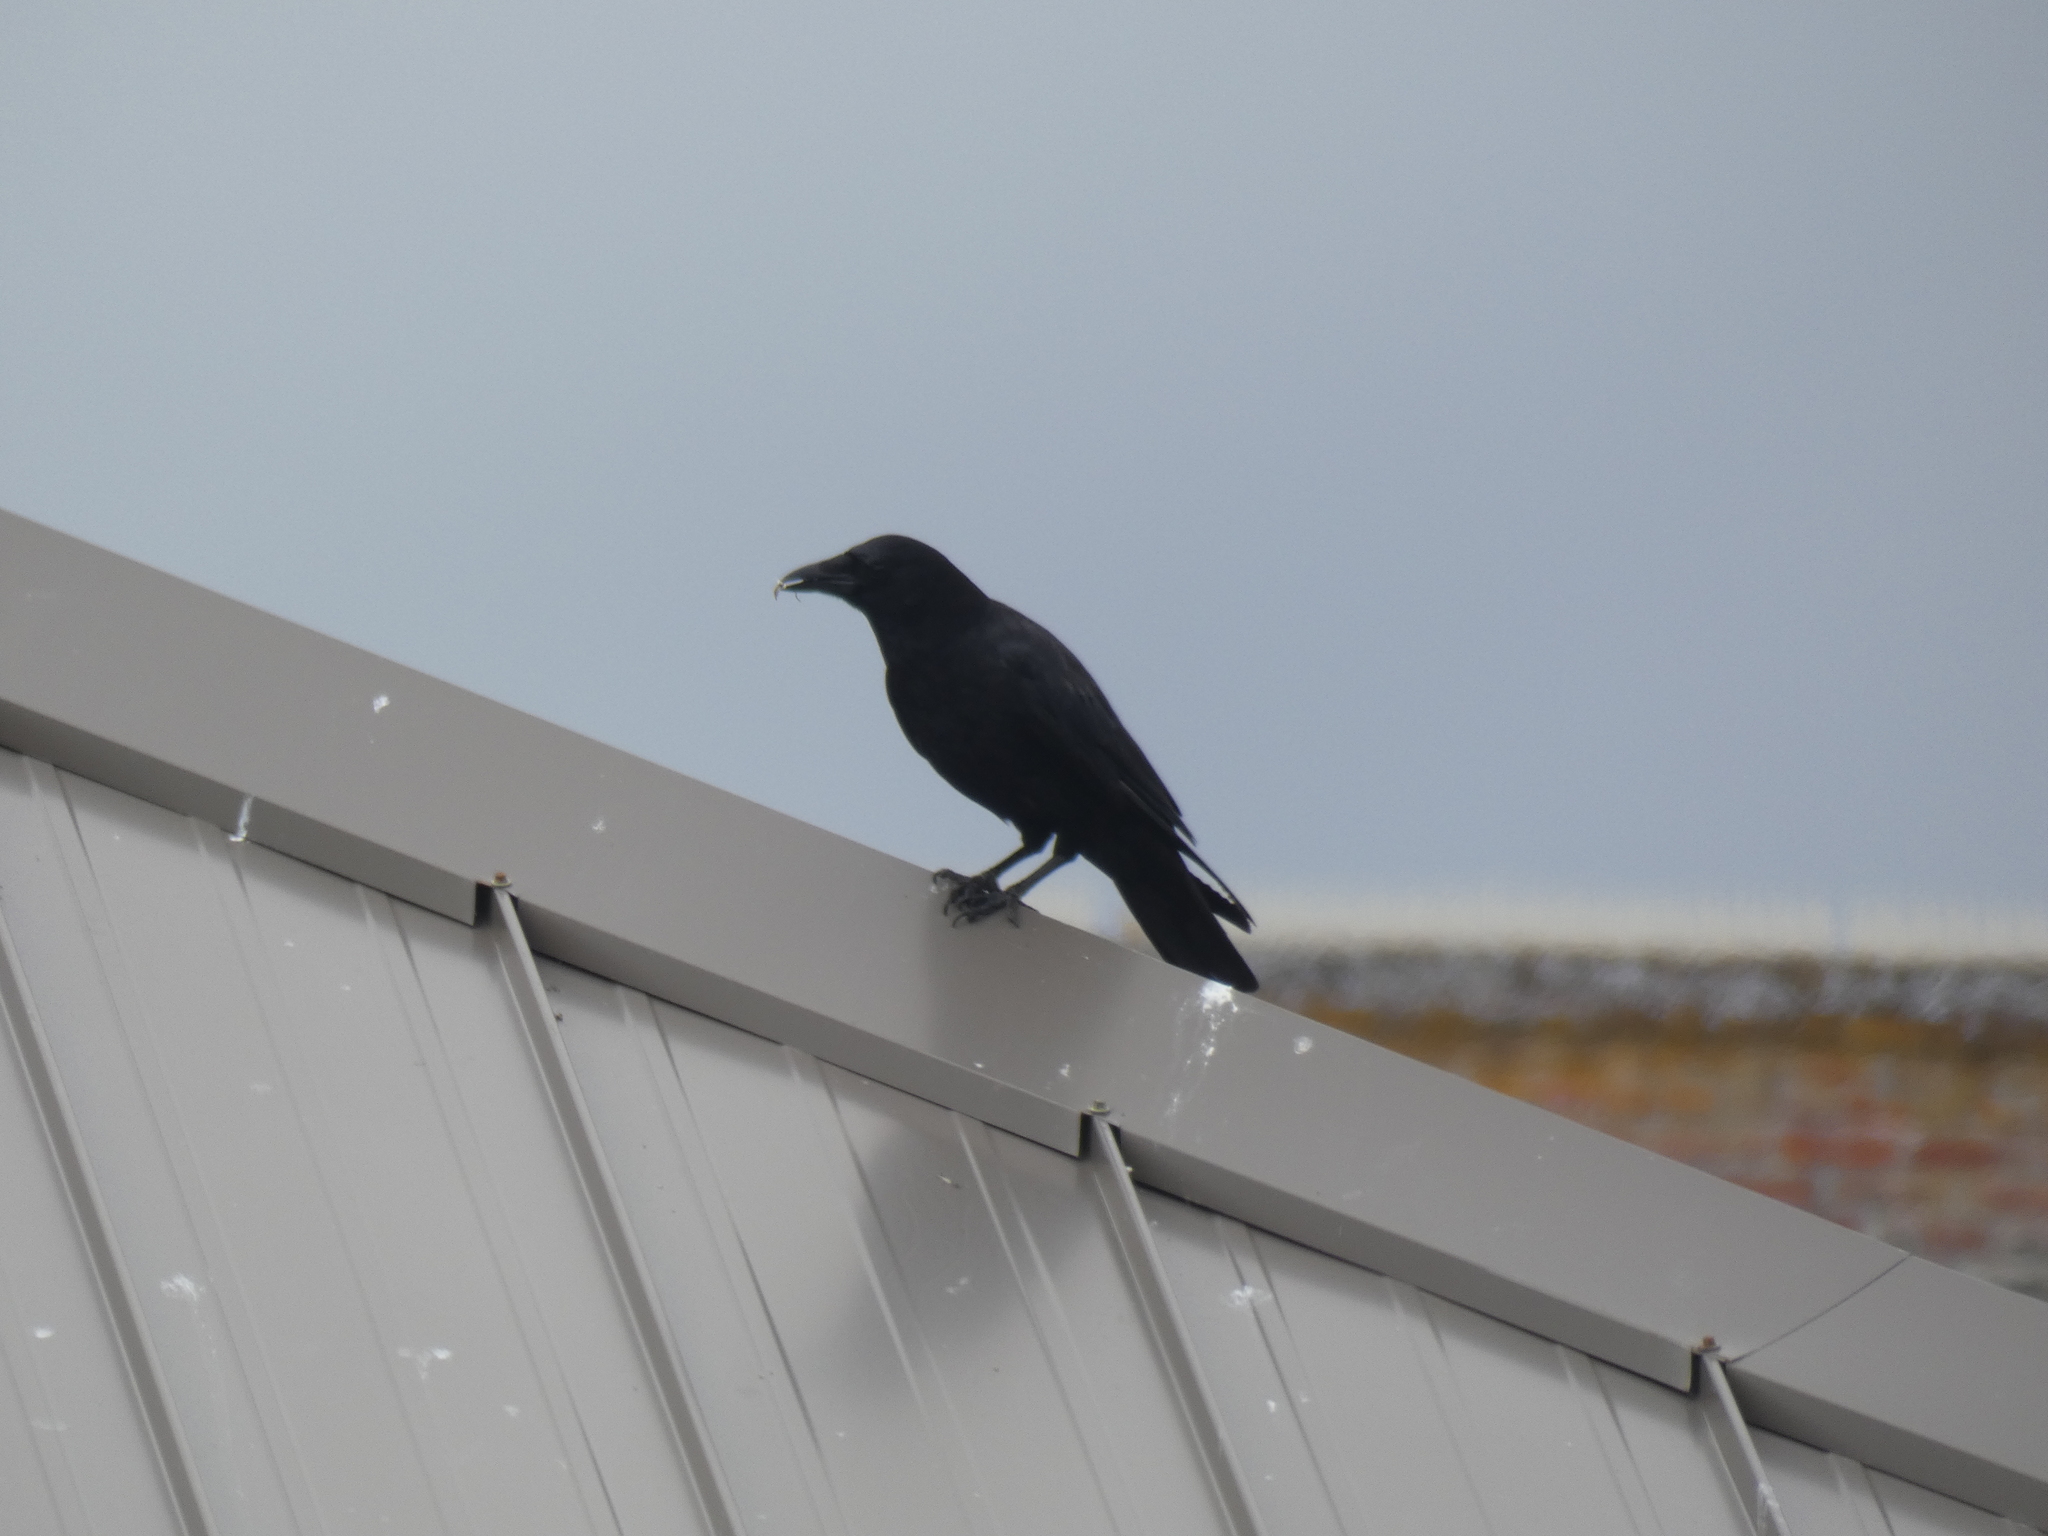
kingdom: Animalia
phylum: Chordata
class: Aves
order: Passeriformes
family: Corvidae
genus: Corvus
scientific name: Corvus brachyrhynchos
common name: American crow
